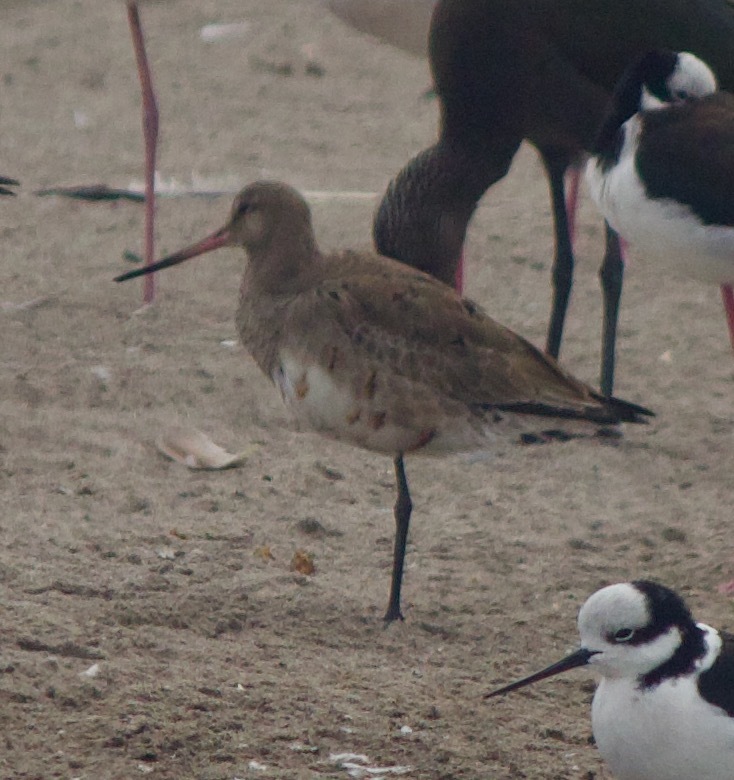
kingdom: Animalia
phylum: Chordata
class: Aves
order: Charadriiformes
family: Scolopacidae
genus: Limosa
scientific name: Limosa haemastica
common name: Hudsonian godwit
